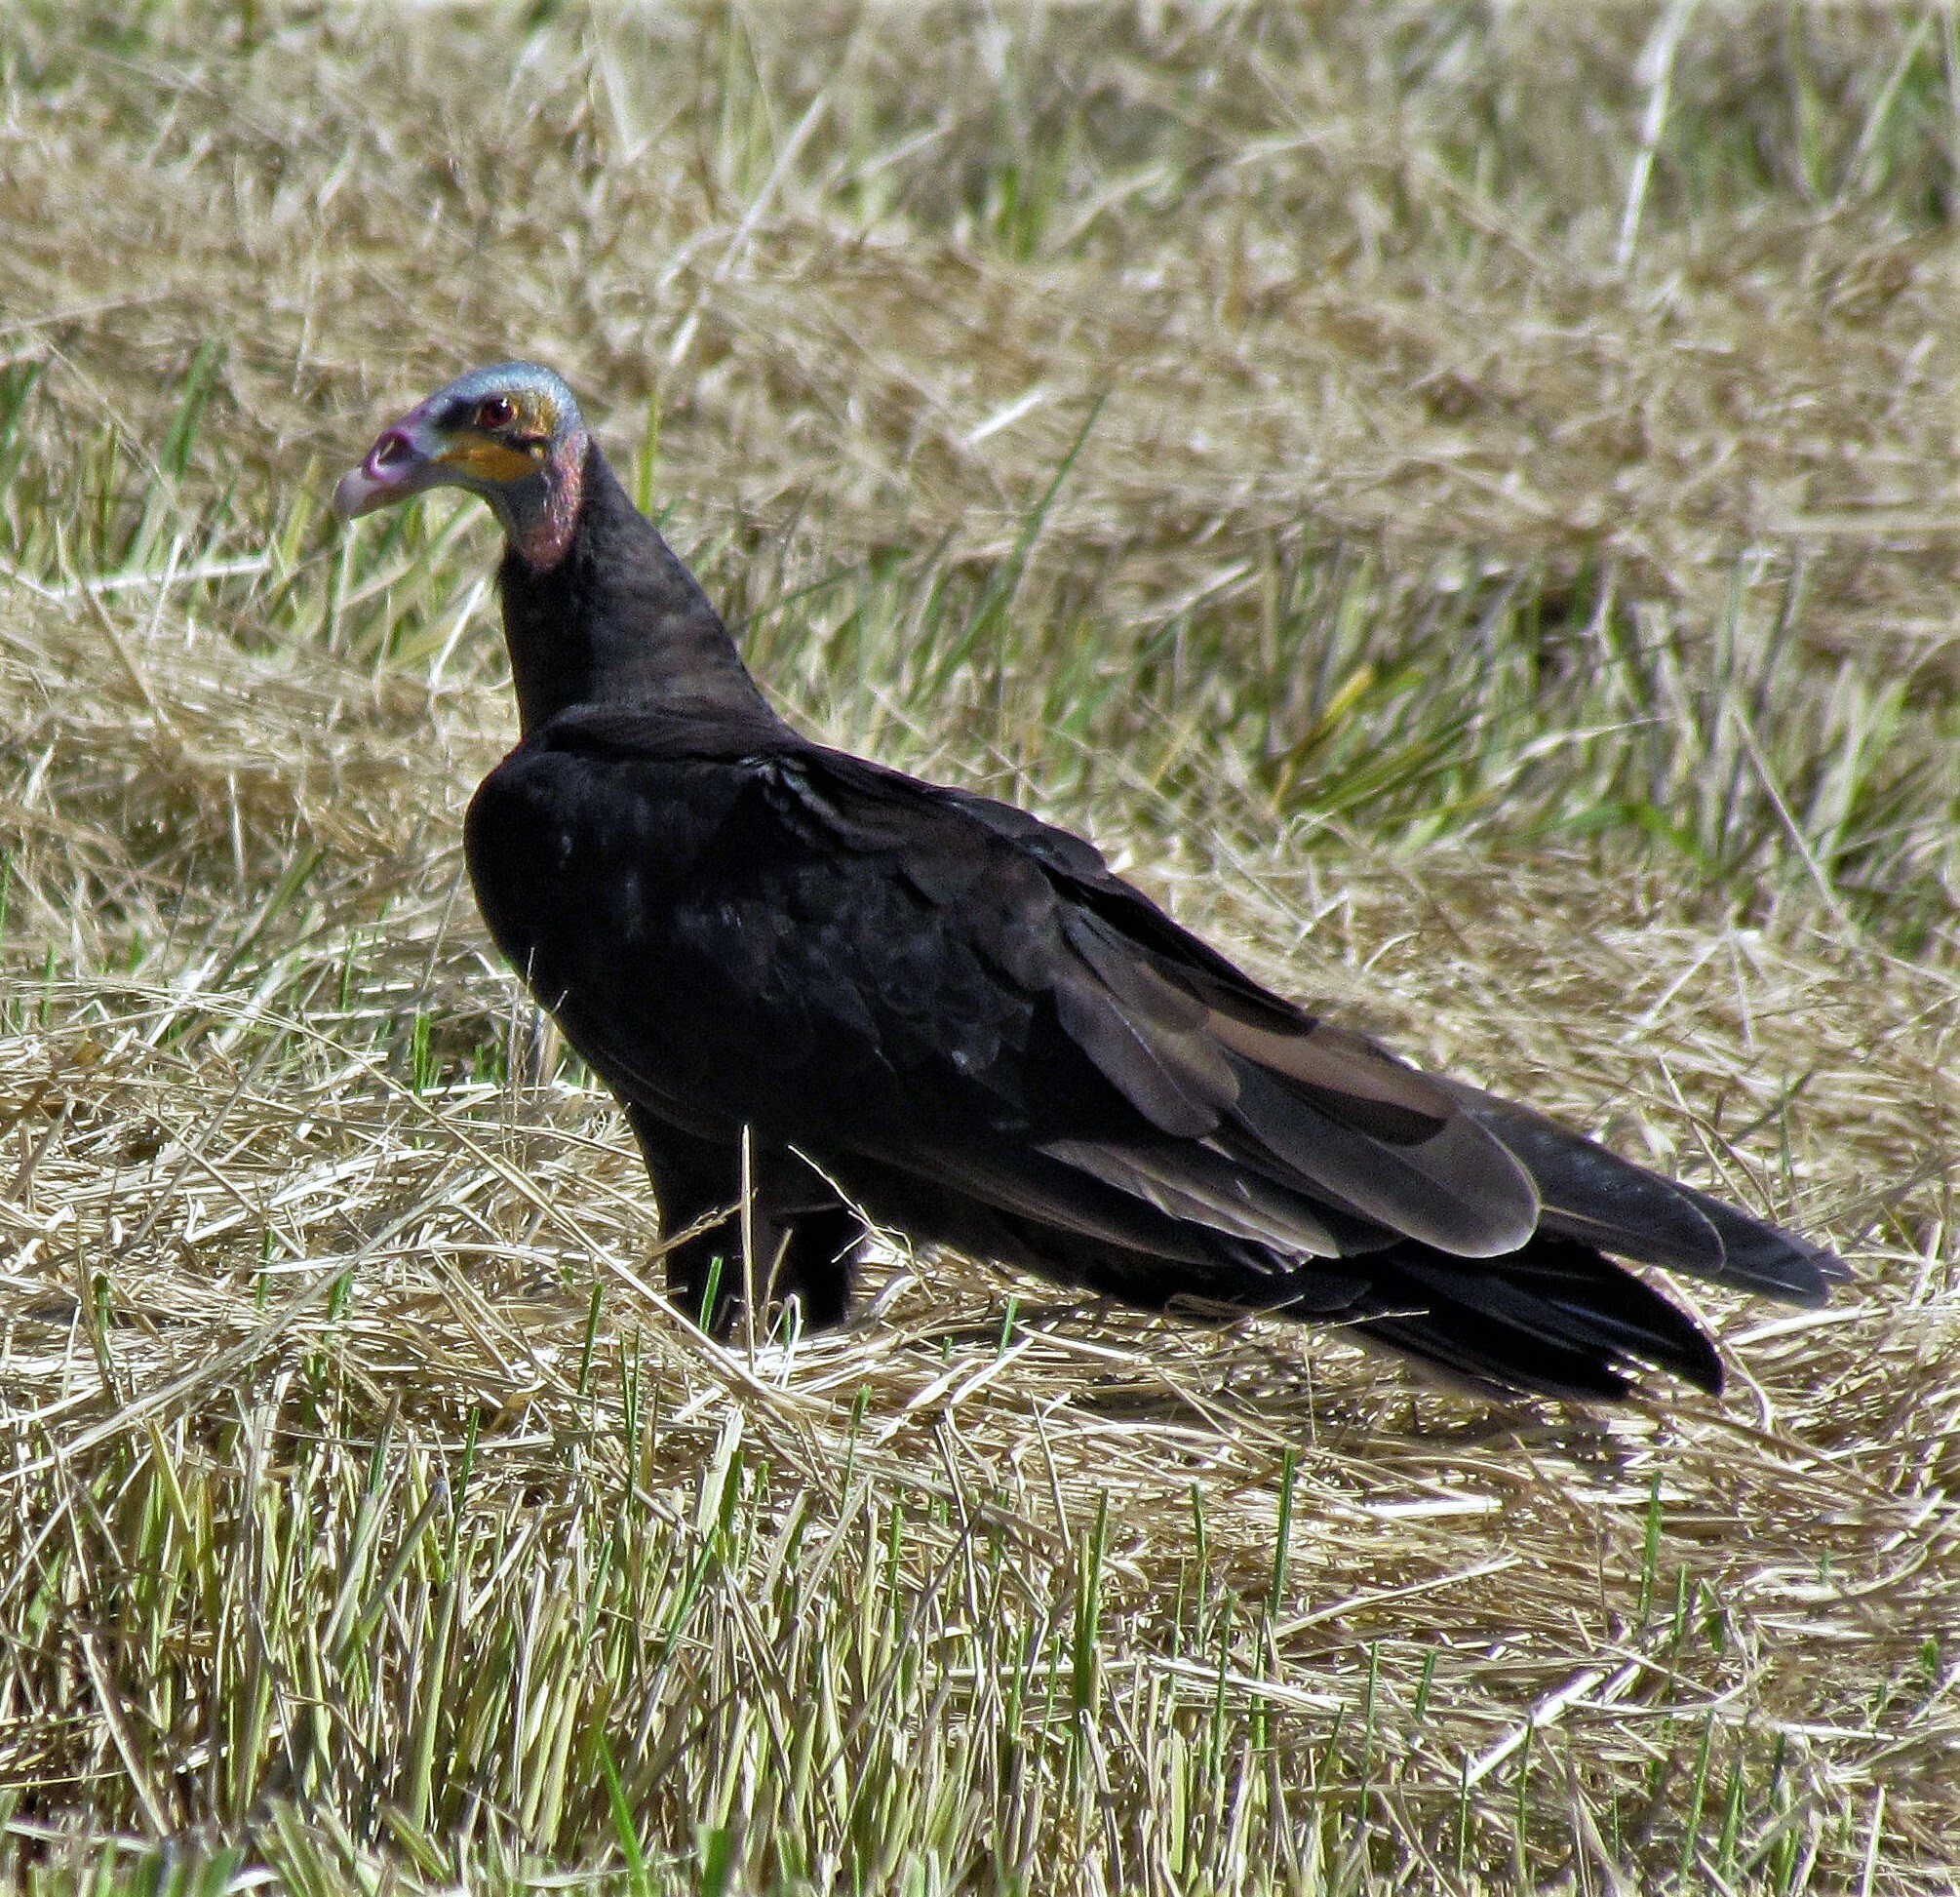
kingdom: Animalia
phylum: Chordata
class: Aves
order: Accipitriformes
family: Cathartidae
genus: Cathartes
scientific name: Cathartes burrovianus
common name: Lesser yellow-headed vulture
